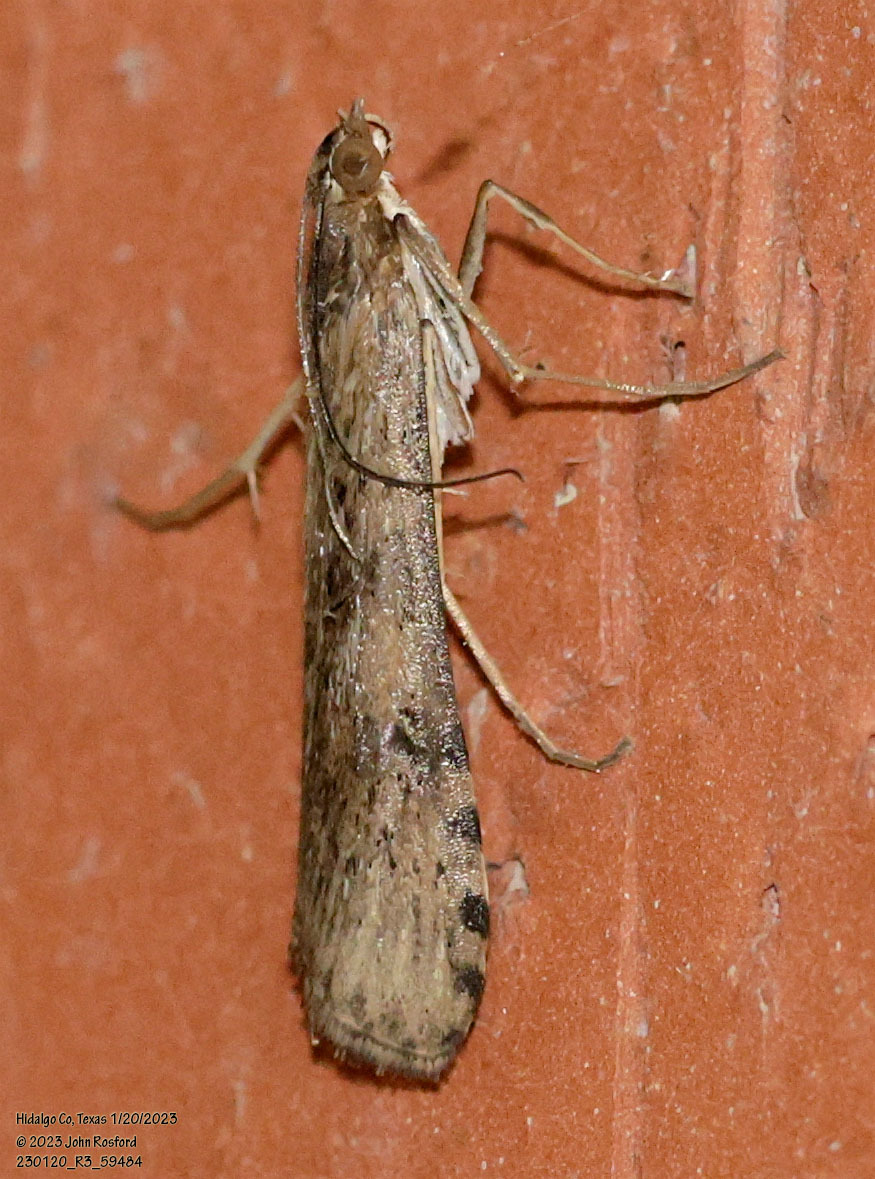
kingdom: Animalia
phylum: Arthropoda
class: Insecta
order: Lepidoptera
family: Crambidae
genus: Nomophila
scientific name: Nomophila nearctica
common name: American rush veneer
